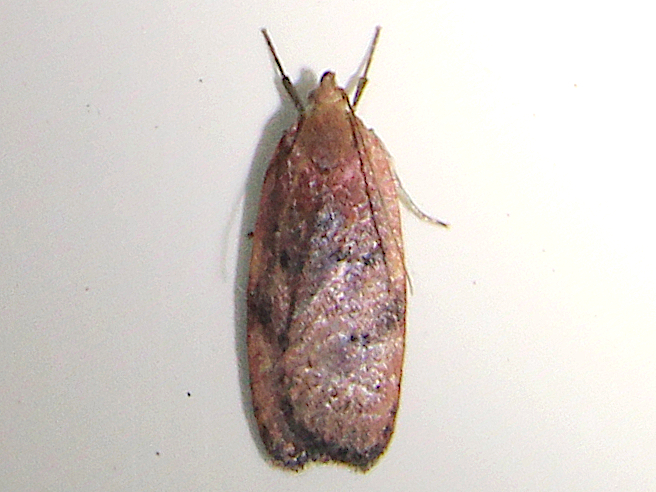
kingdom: Animalia
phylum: Arthropoda
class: Insecta
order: Lepidoptera
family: Depressariidae
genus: Phaeosaces
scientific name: Phaeosaces coarctatella
